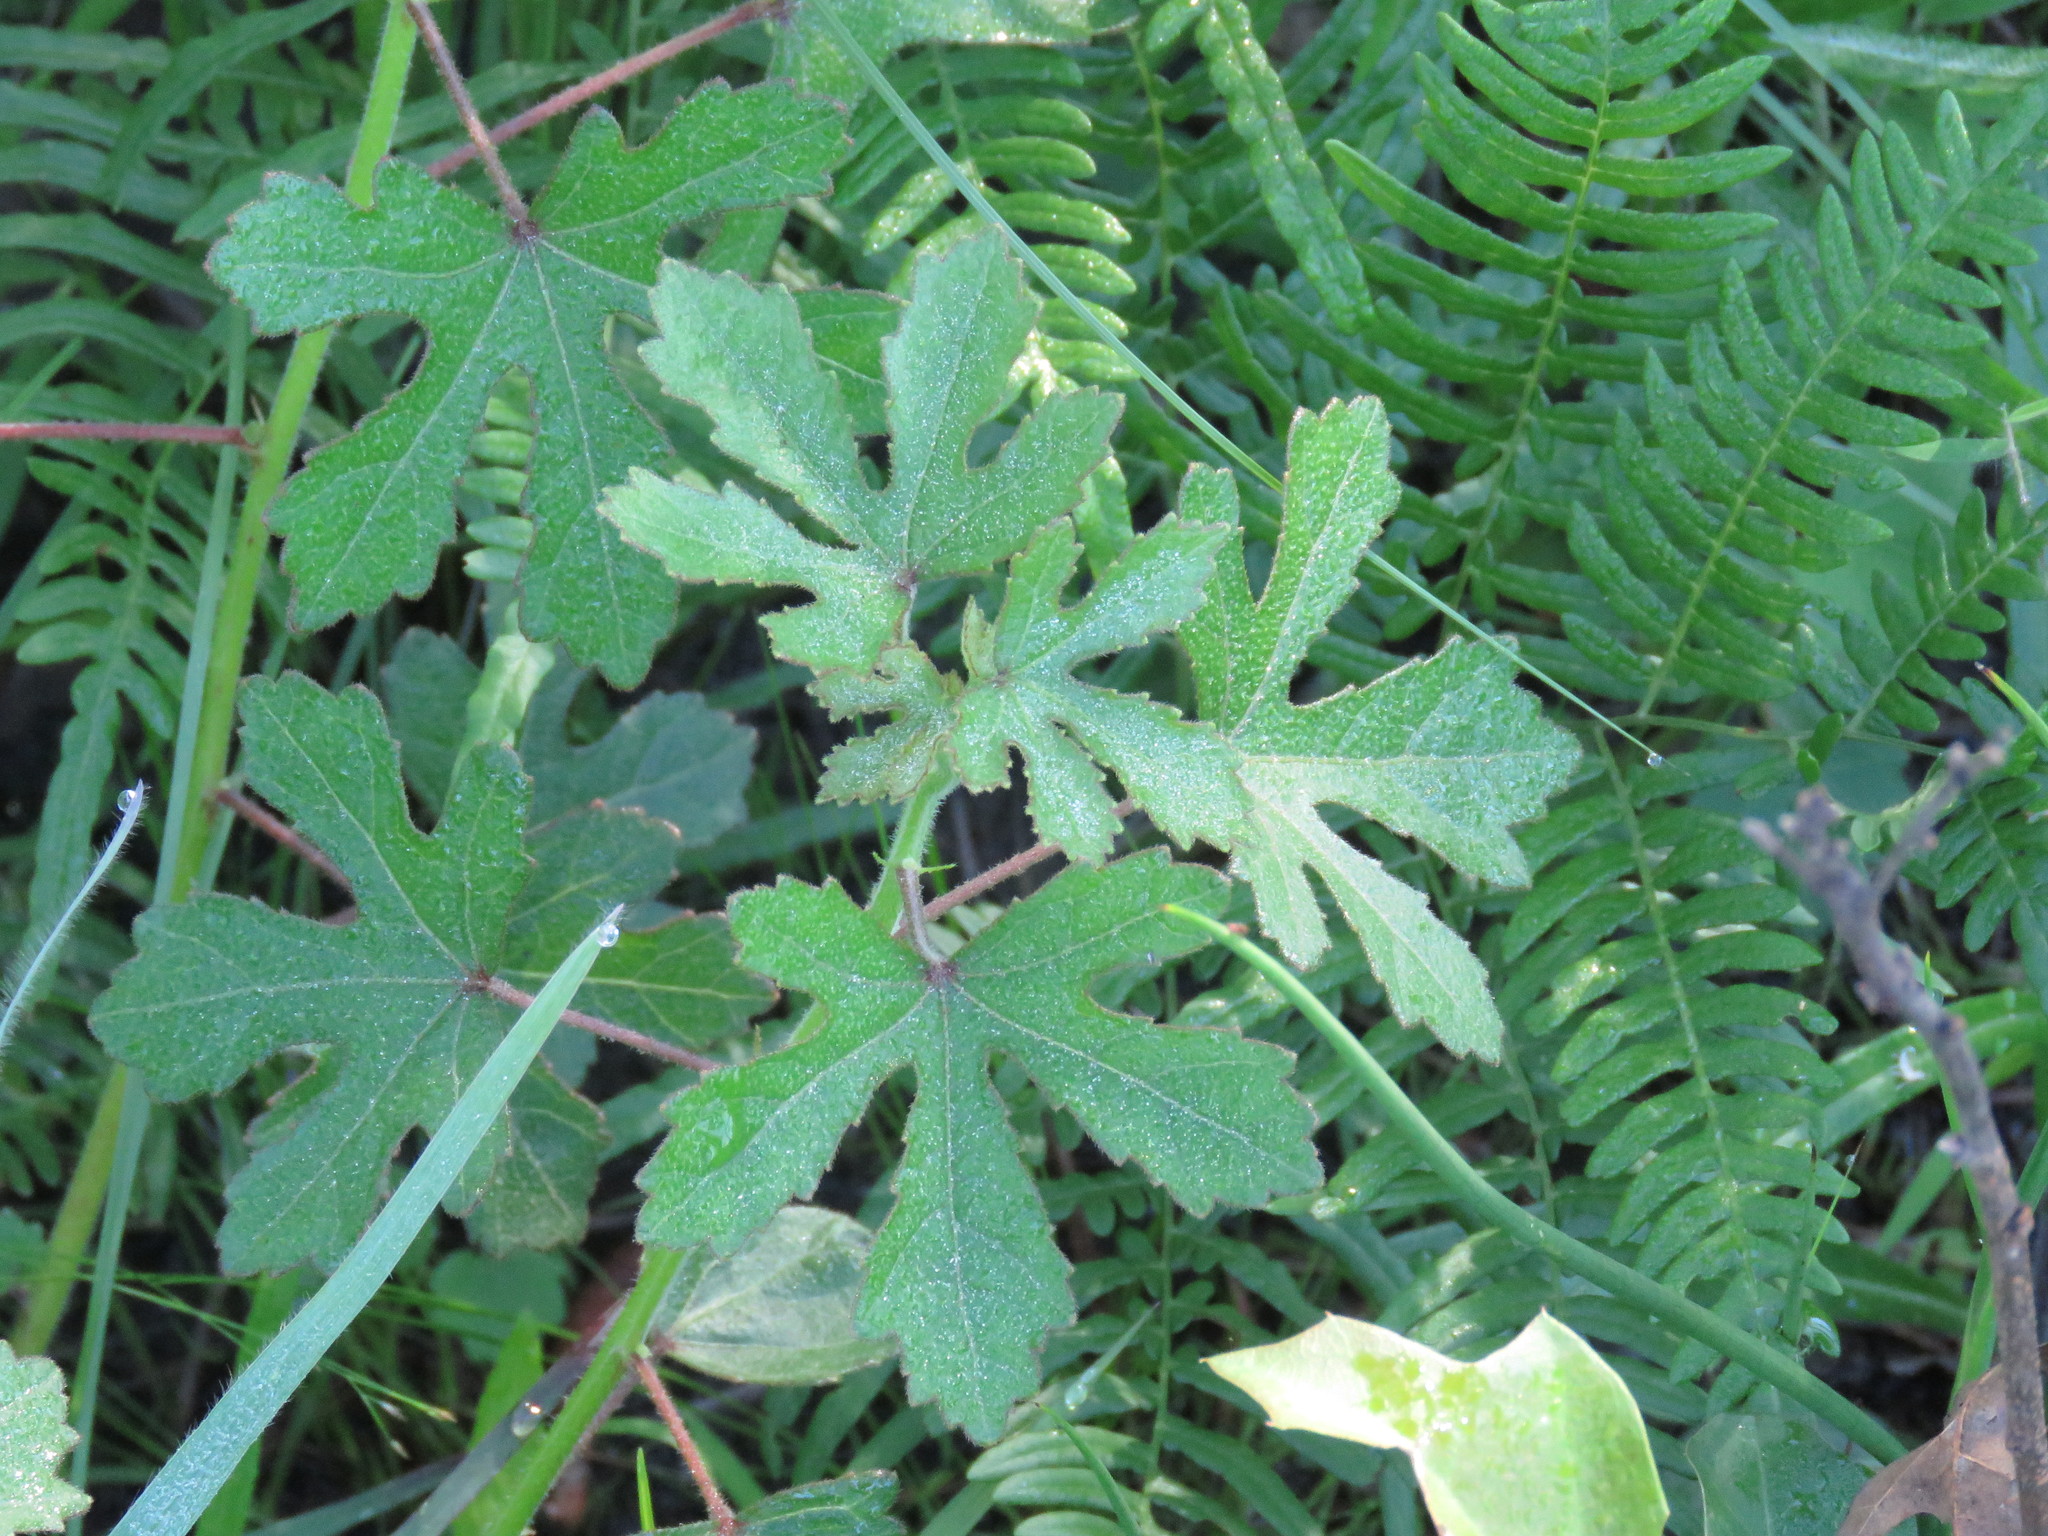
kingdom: Plantae
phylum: Tracheophyta
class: Magnoliopsida
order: Malvales
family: Malvaceae
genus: Hibiscus
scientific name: Hibiscus aculeatus
